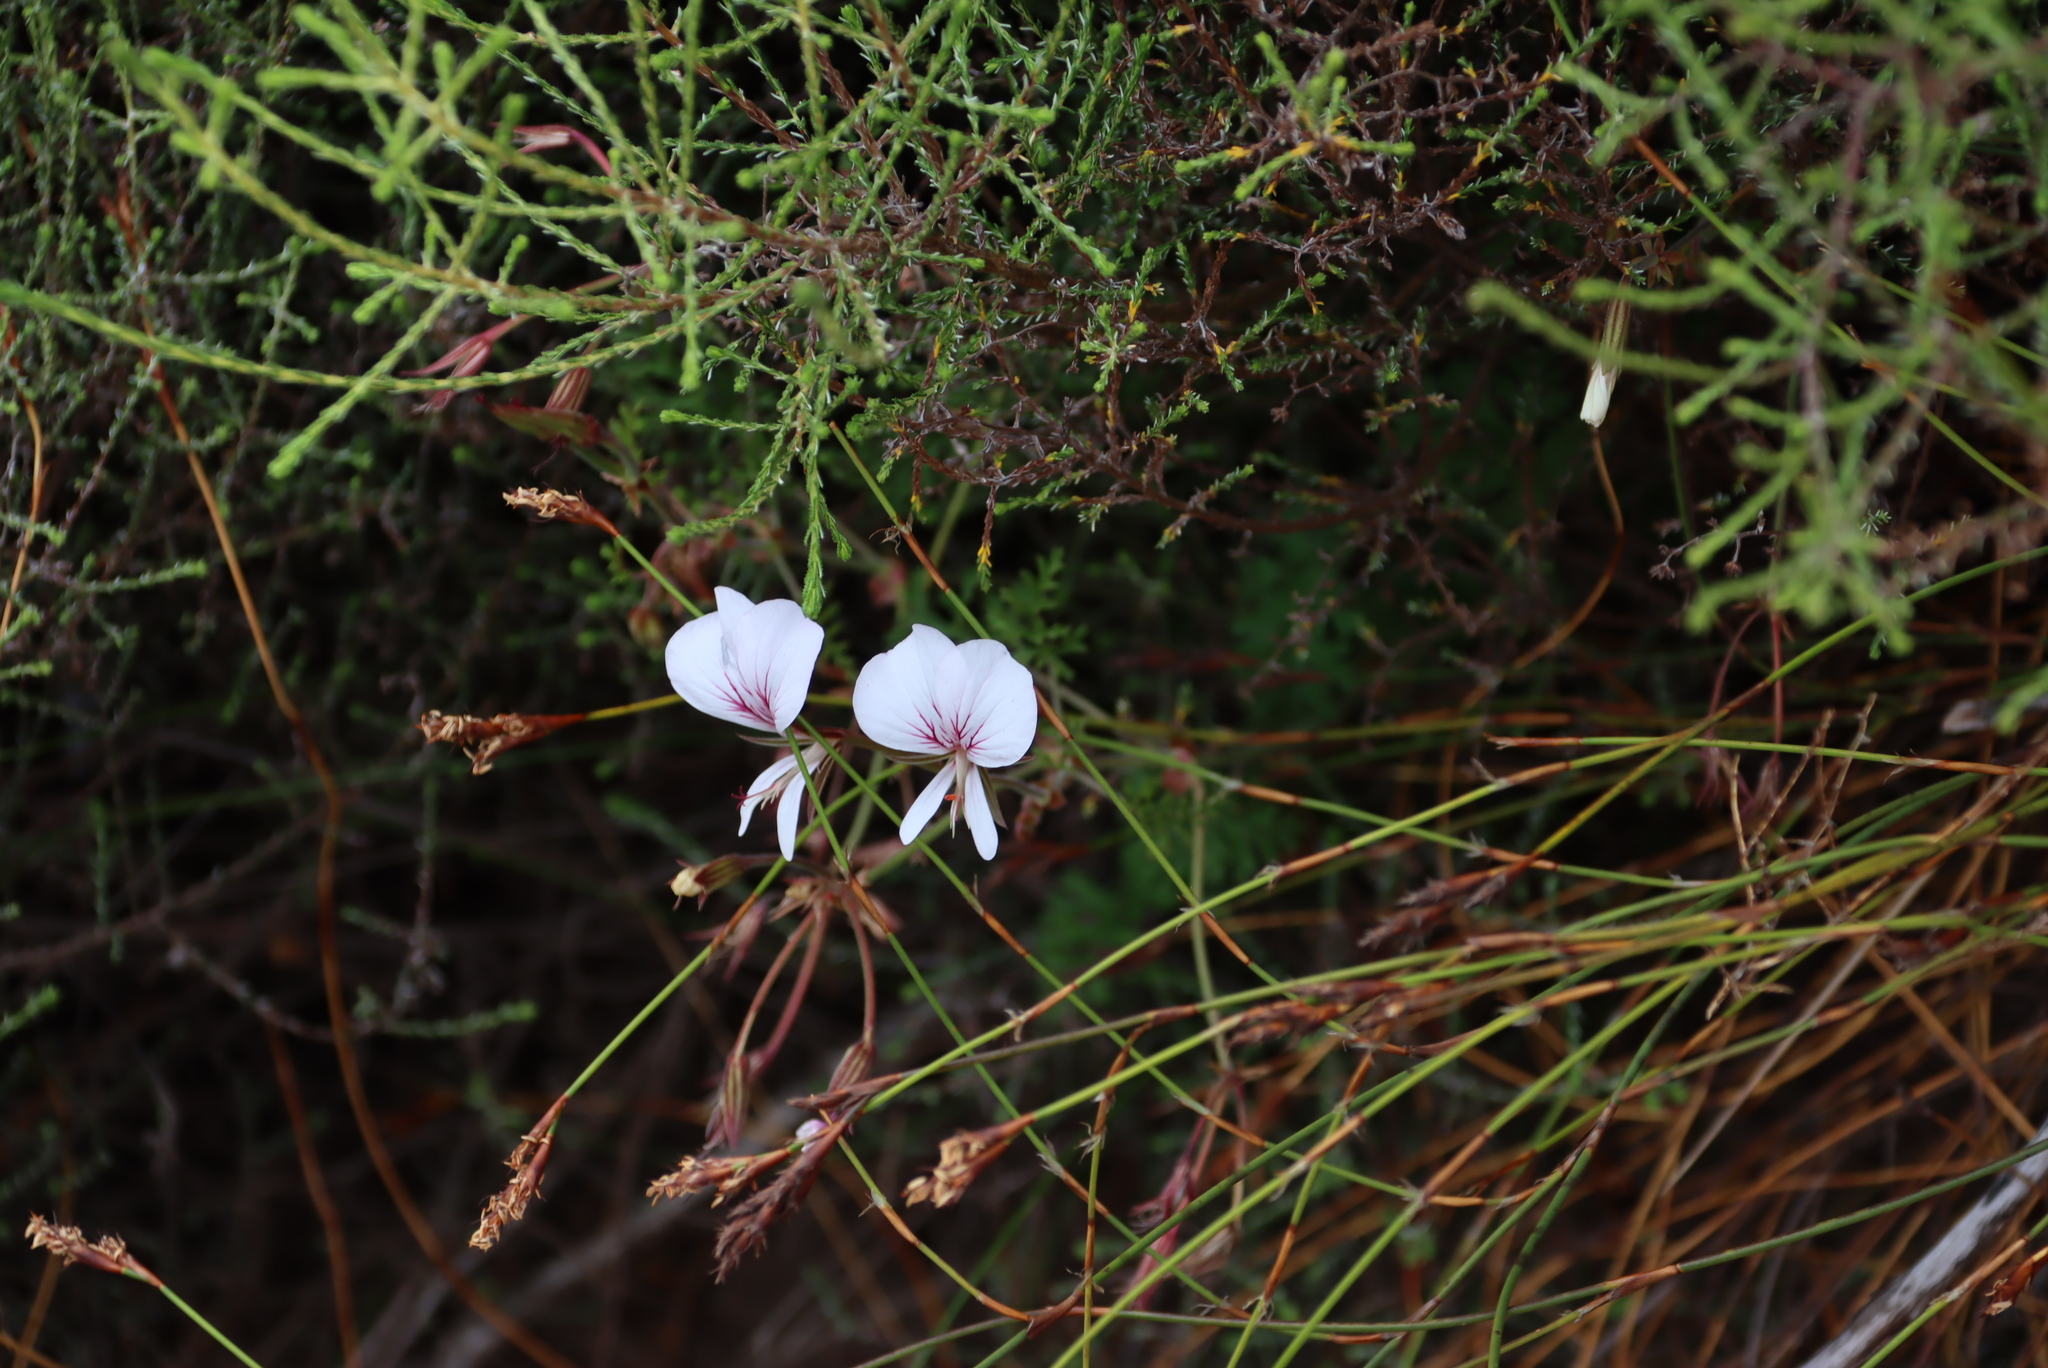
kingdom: Plantae
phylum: Tracheophyta
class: Magnoliopsida
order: Geraniales
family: Geraniaceae
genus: Pelargonium
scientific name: Pelargonium longicaule
